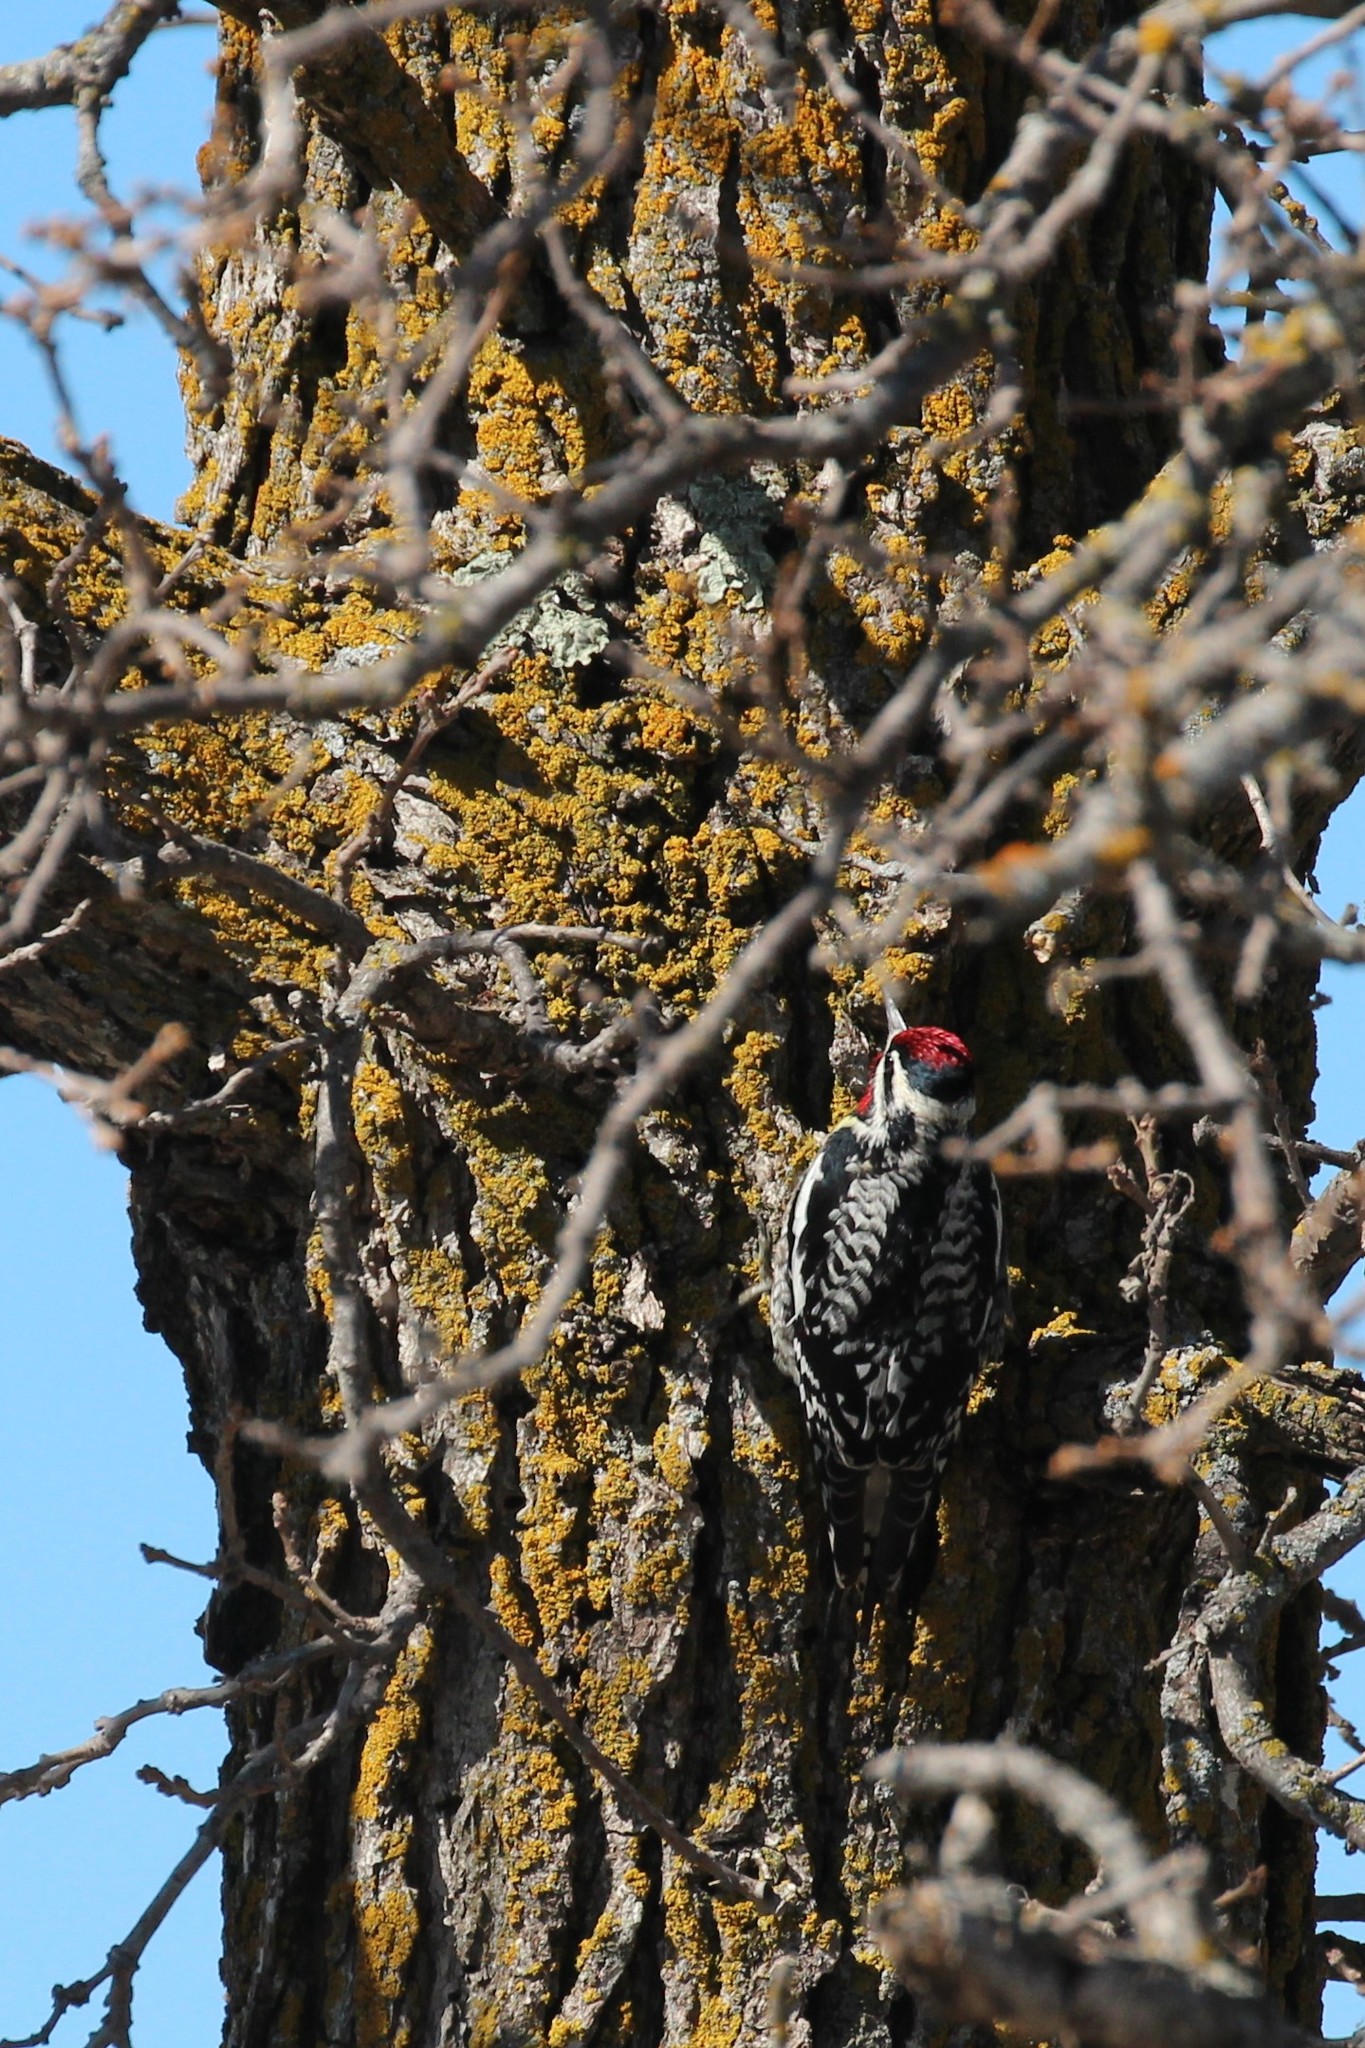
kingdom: Animalia
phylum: Chordata
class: Aves
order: Piciformes
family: Picidae
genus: Sphyrapicus
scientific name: Sphyrapicus varius
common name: Yellow-bellied sapsucker
